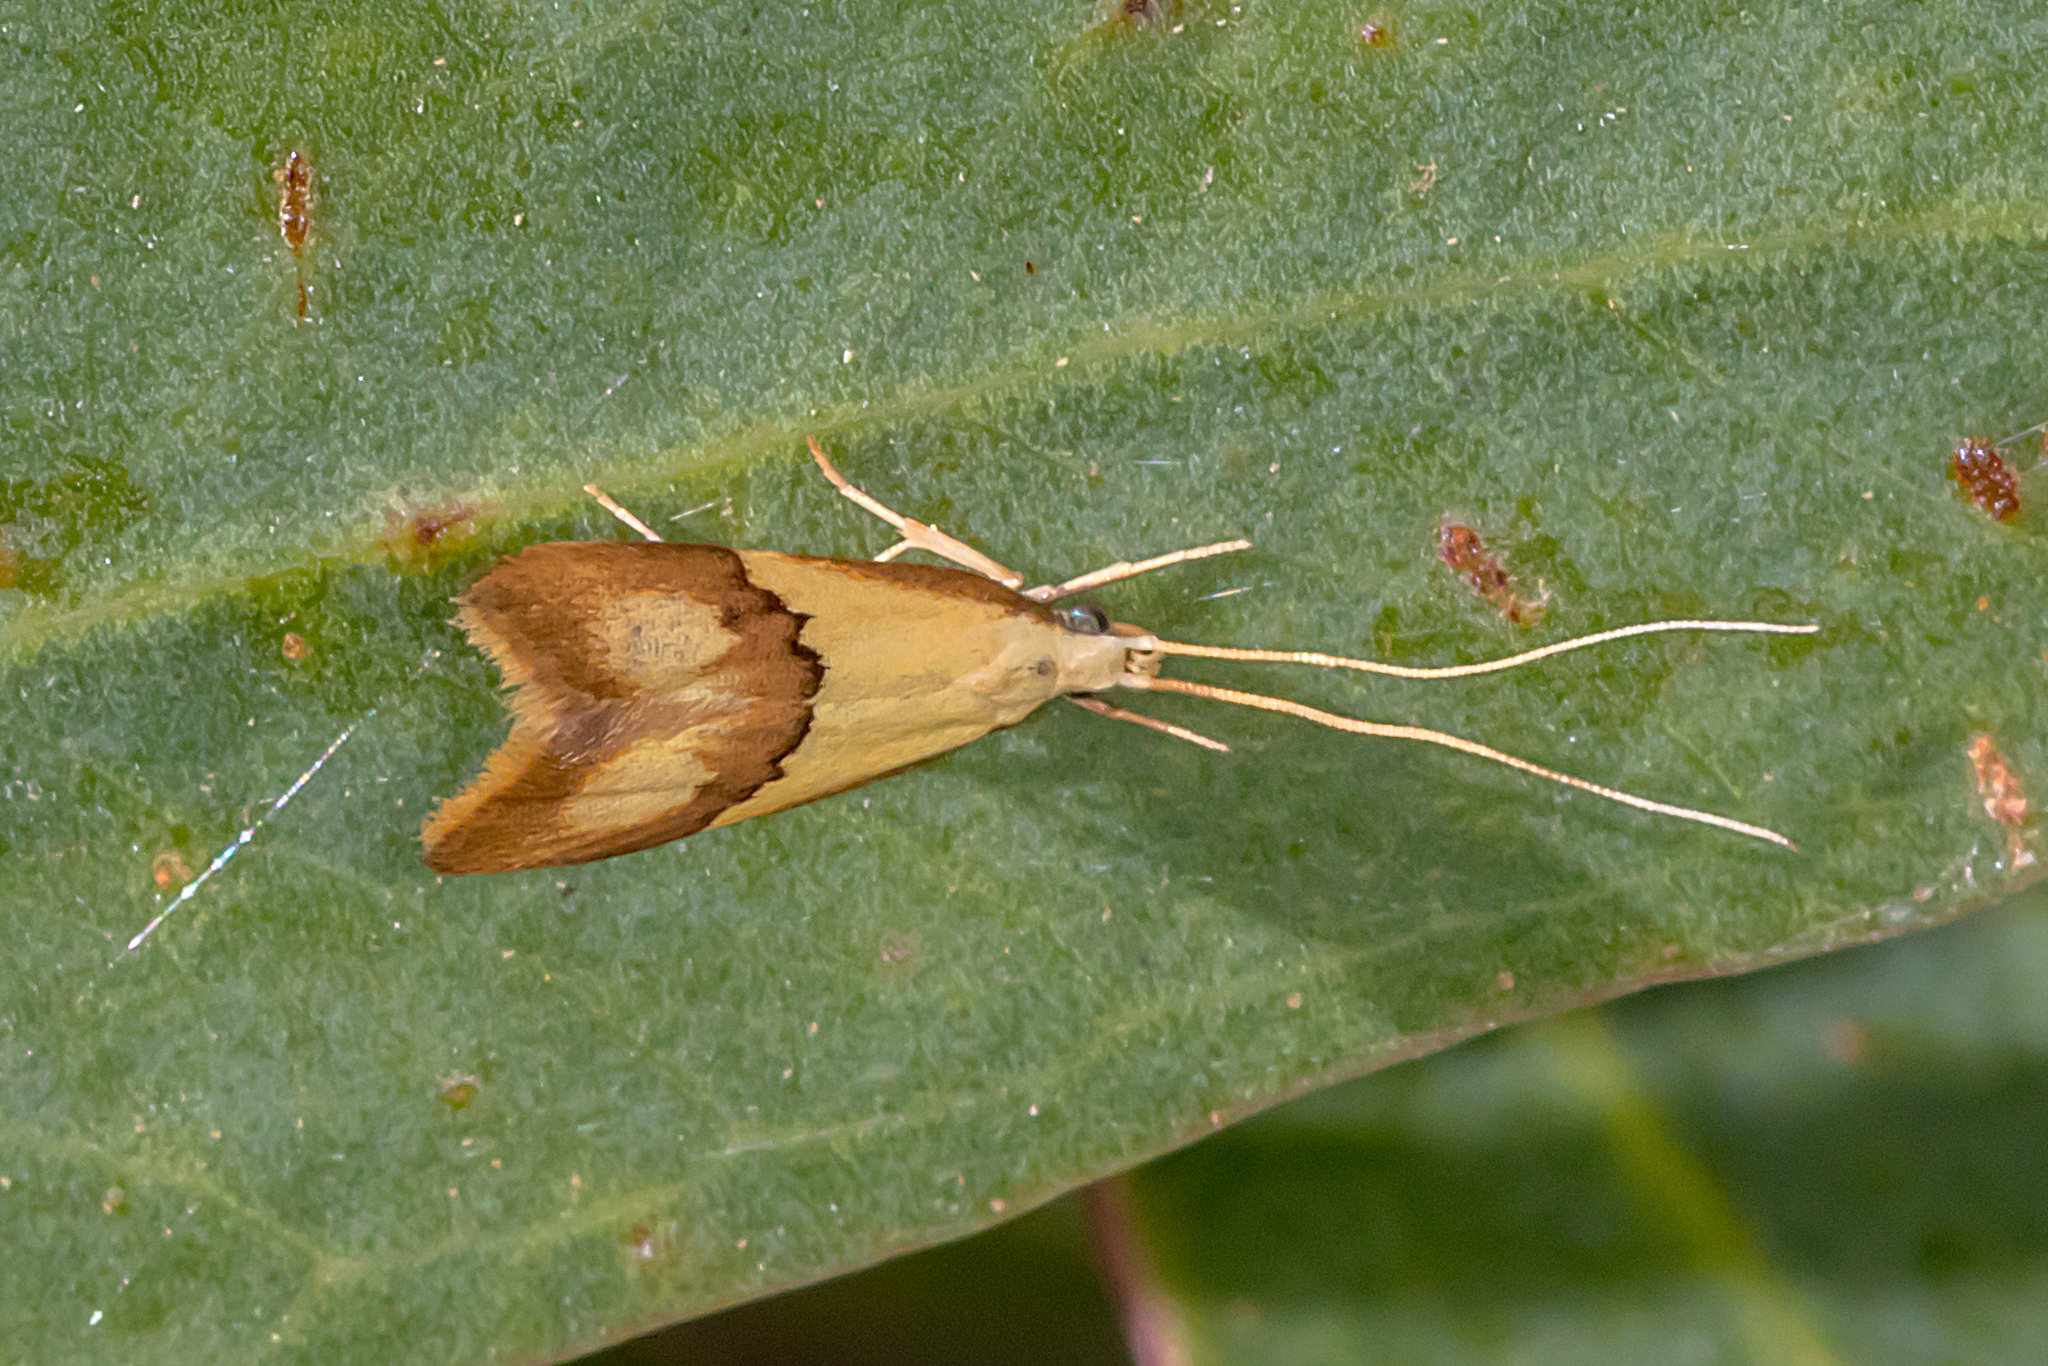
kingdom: Animalia
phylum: Arthropoda
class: Insecta
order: Lepidoptera
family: Lecithoceridae
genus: Crocanthes
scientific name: Crocanthes glycina
